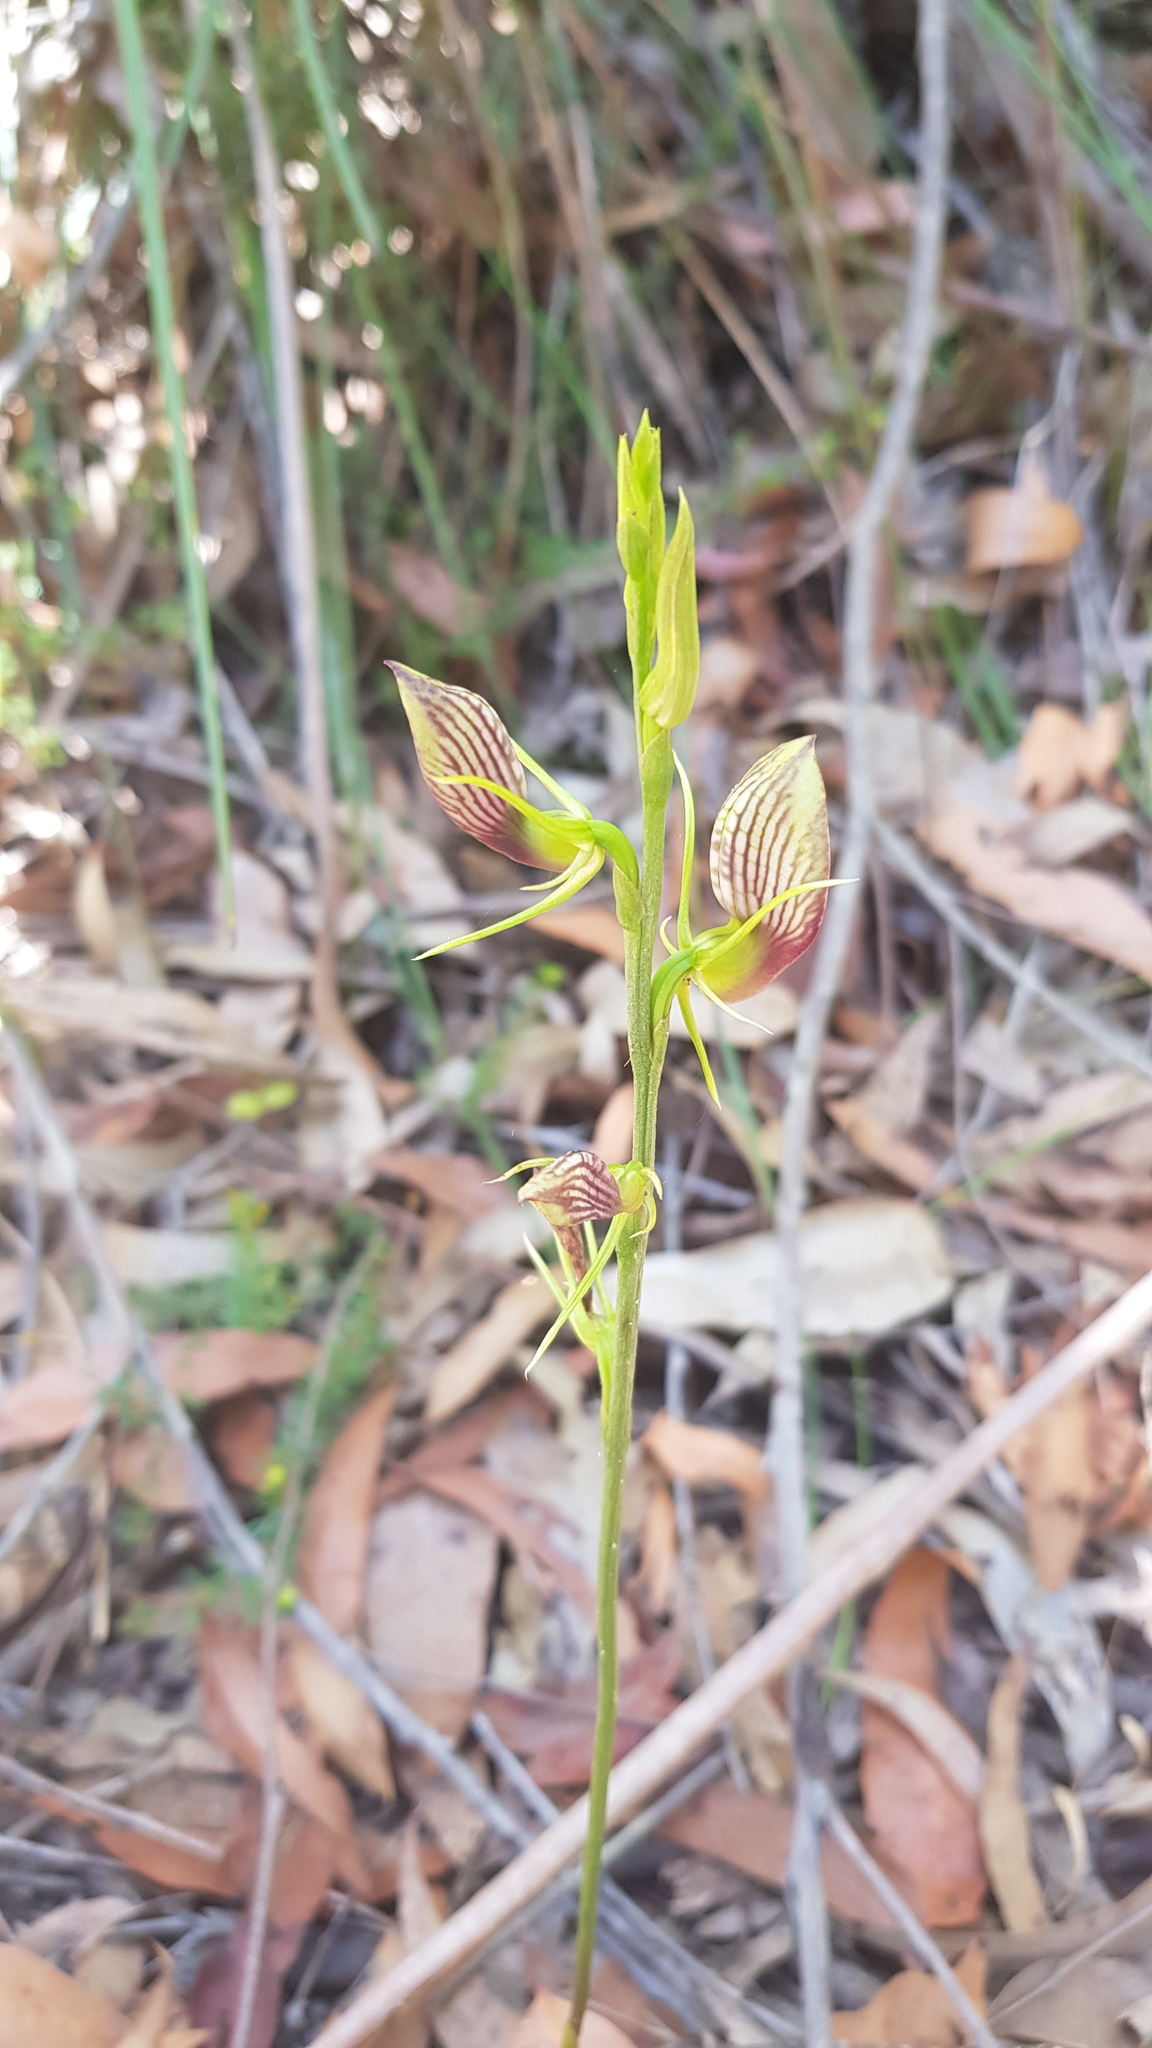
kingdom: Plantae
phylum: Tracheophyta
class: Liliopsida
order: Asparagales
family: Orchidaceae
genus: Cryptostylis
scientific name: Cryptostylis erecta
